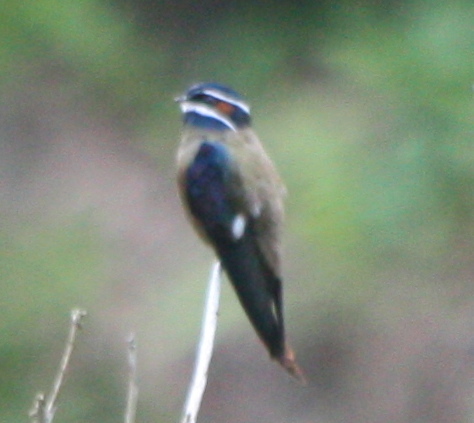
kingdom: Animalia
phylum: Chordata
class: Aves
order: Apodiformes
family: Hemiprocnidae
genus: Hemiprocne
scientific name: Hemiprocne comata
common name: Whiskered treeswift
